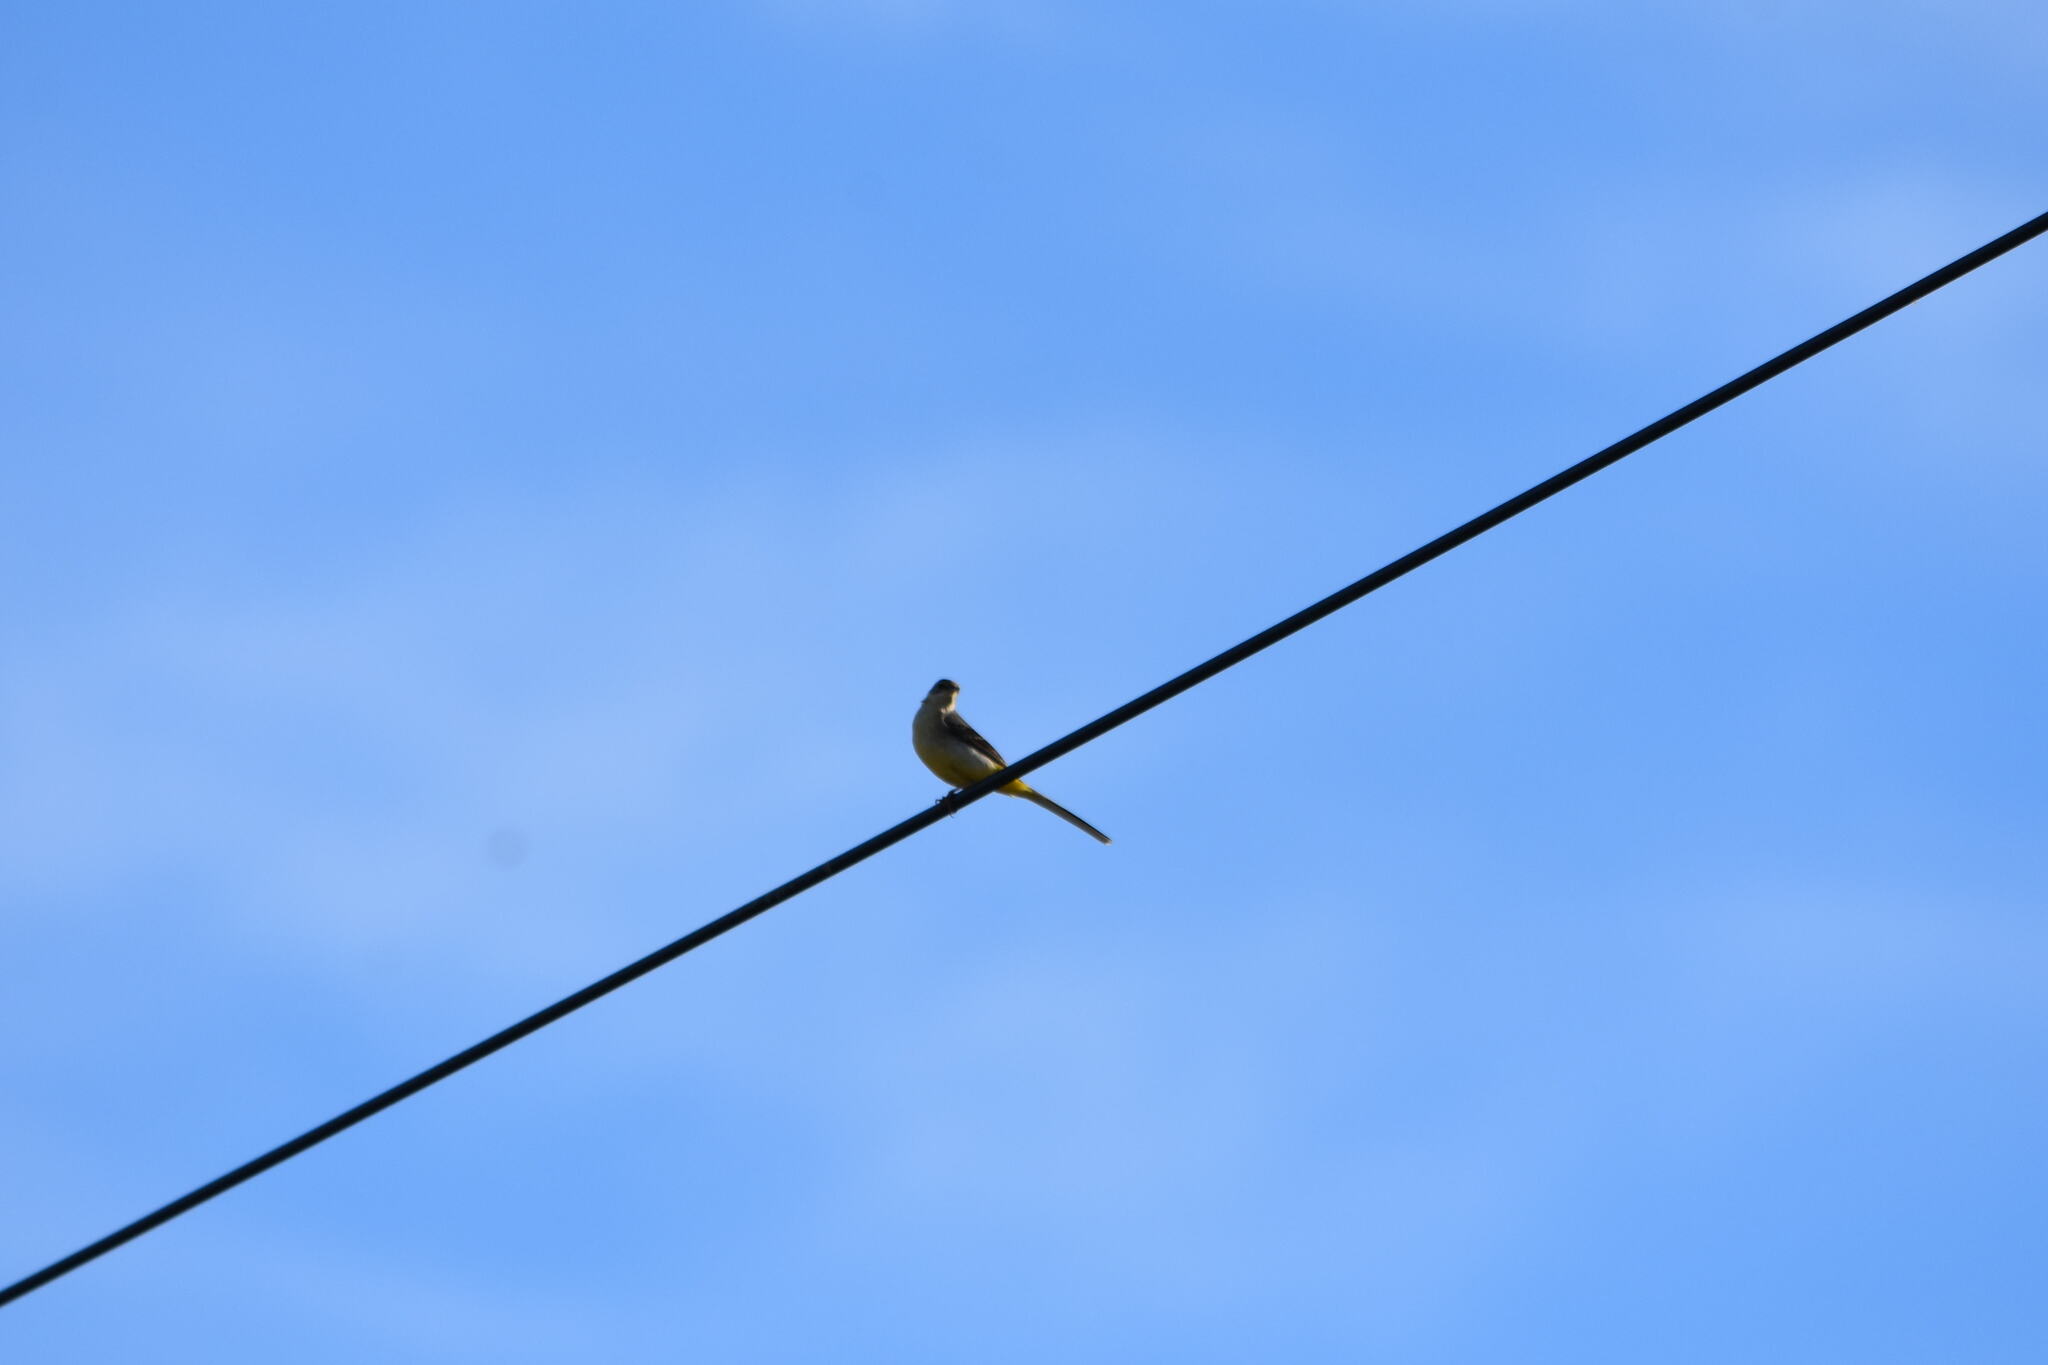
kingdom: Animalia
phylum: Chordata
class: Aves
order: Passeriformes
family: Motacillidae
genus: Motacilla
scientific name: Motacilla cinerea
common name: Grey wagtail
